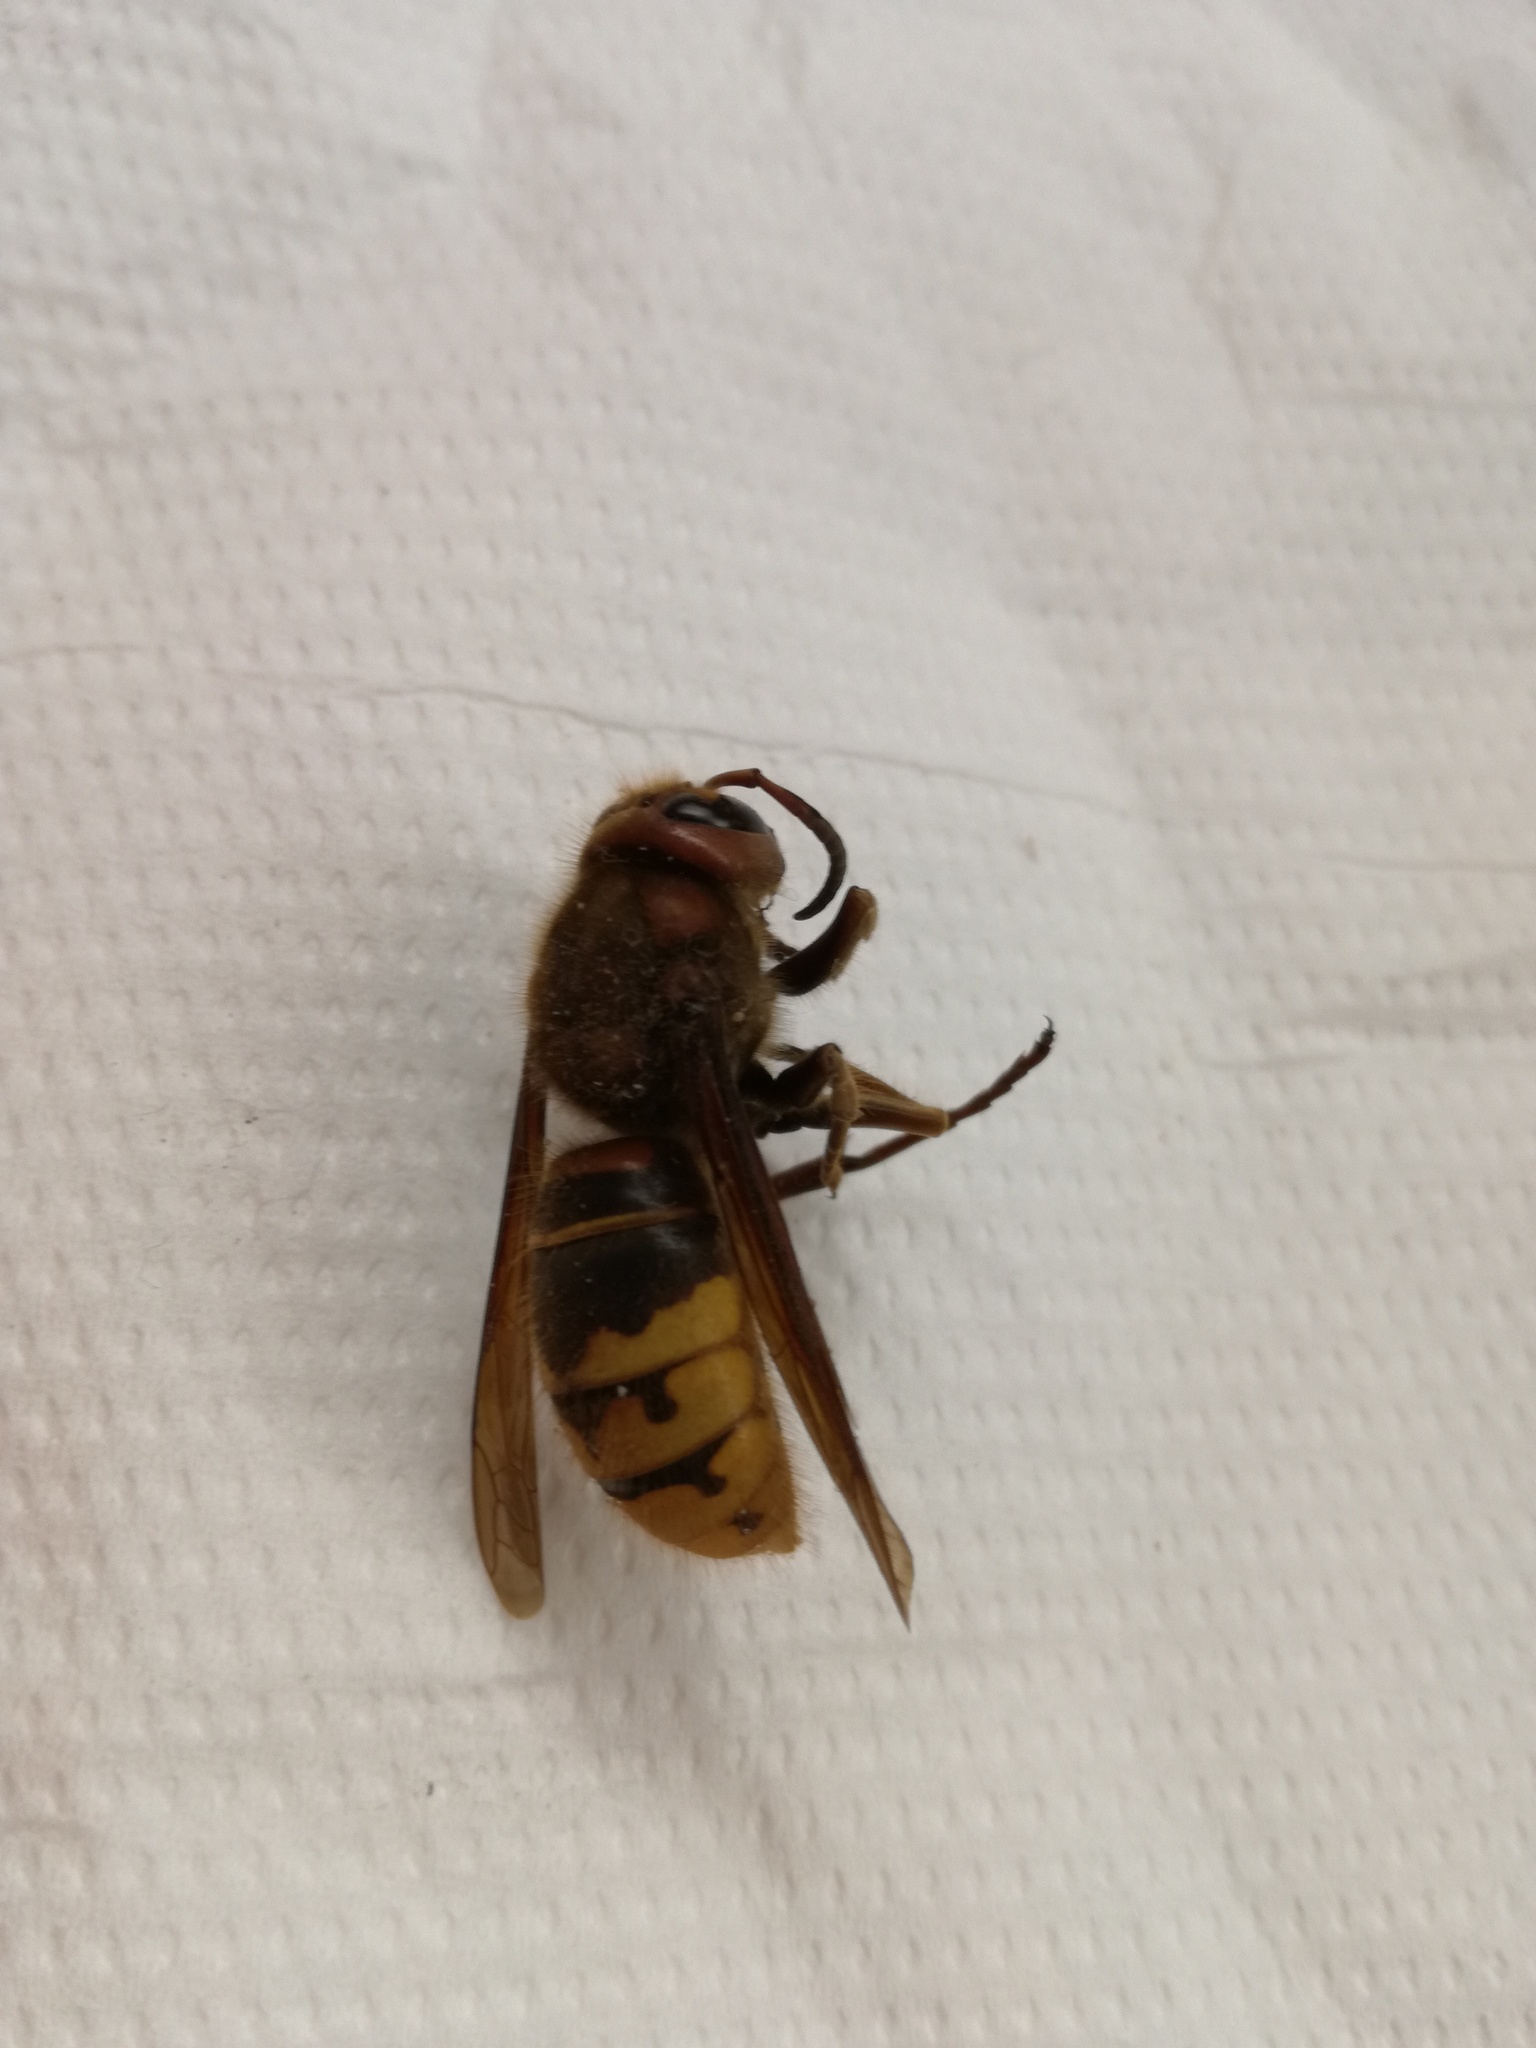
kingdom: Animalia
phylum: Arthropoda
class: Insecta
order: Hymenoptera
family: Vespidae
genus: Vespa
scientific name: Vespa crabro
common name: Hornet
